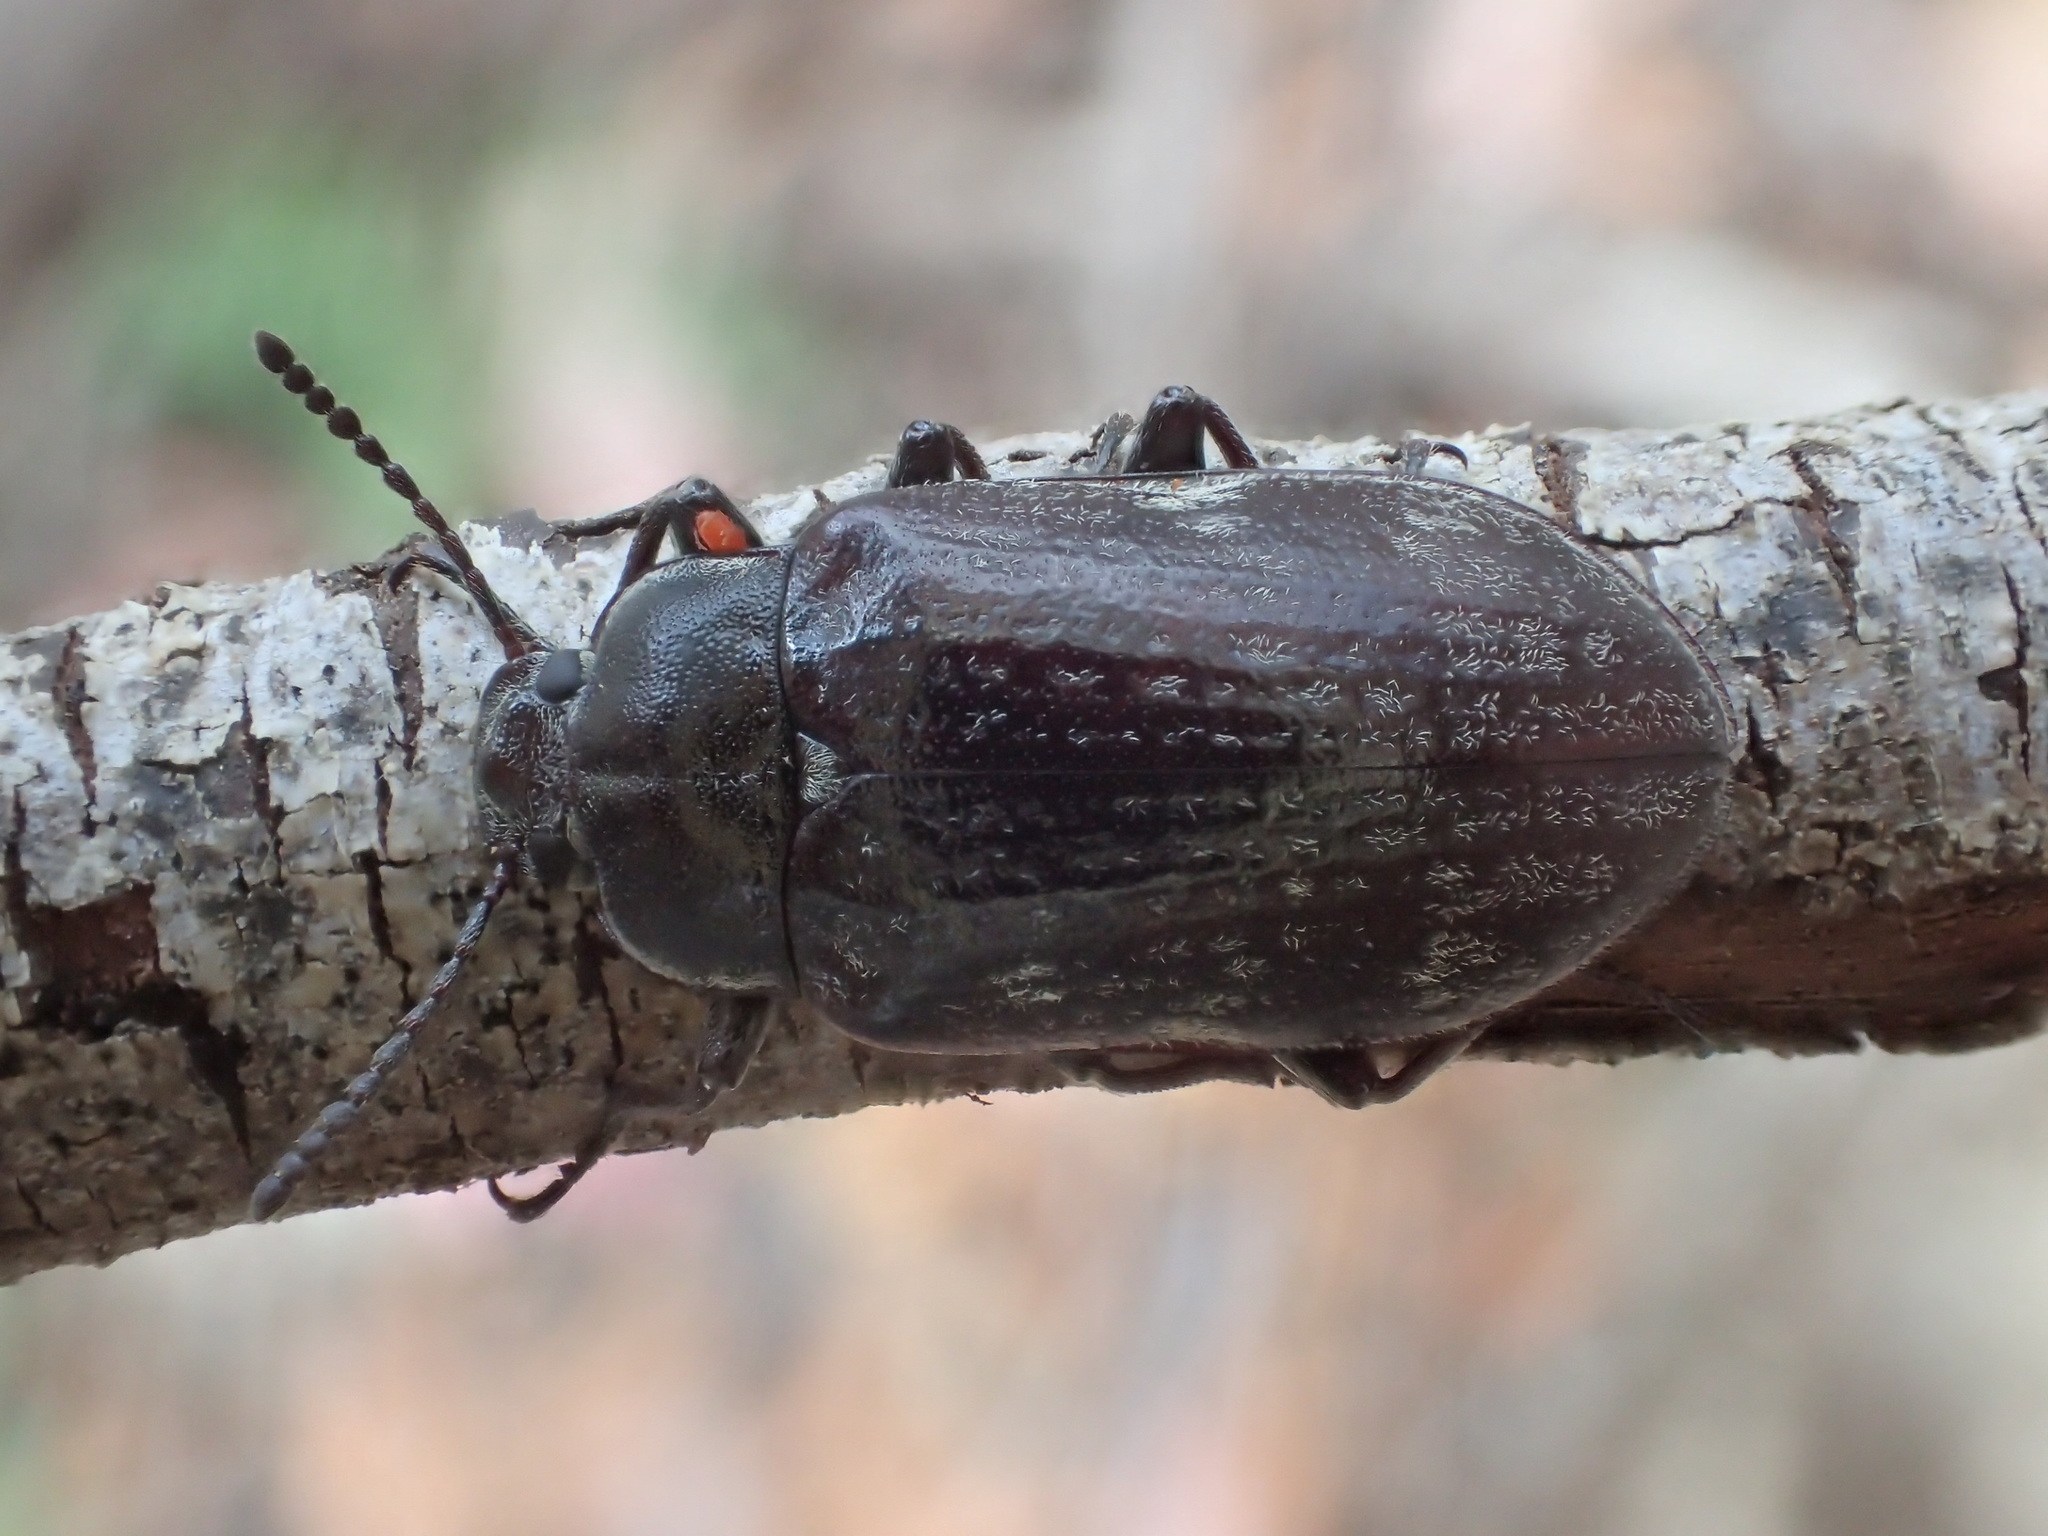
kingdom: Animalia
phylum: Arthropoda
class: Insecta
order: Coleoptera
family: Tenebrionidae
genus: Pachycoelia
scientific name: Pachycoelia
